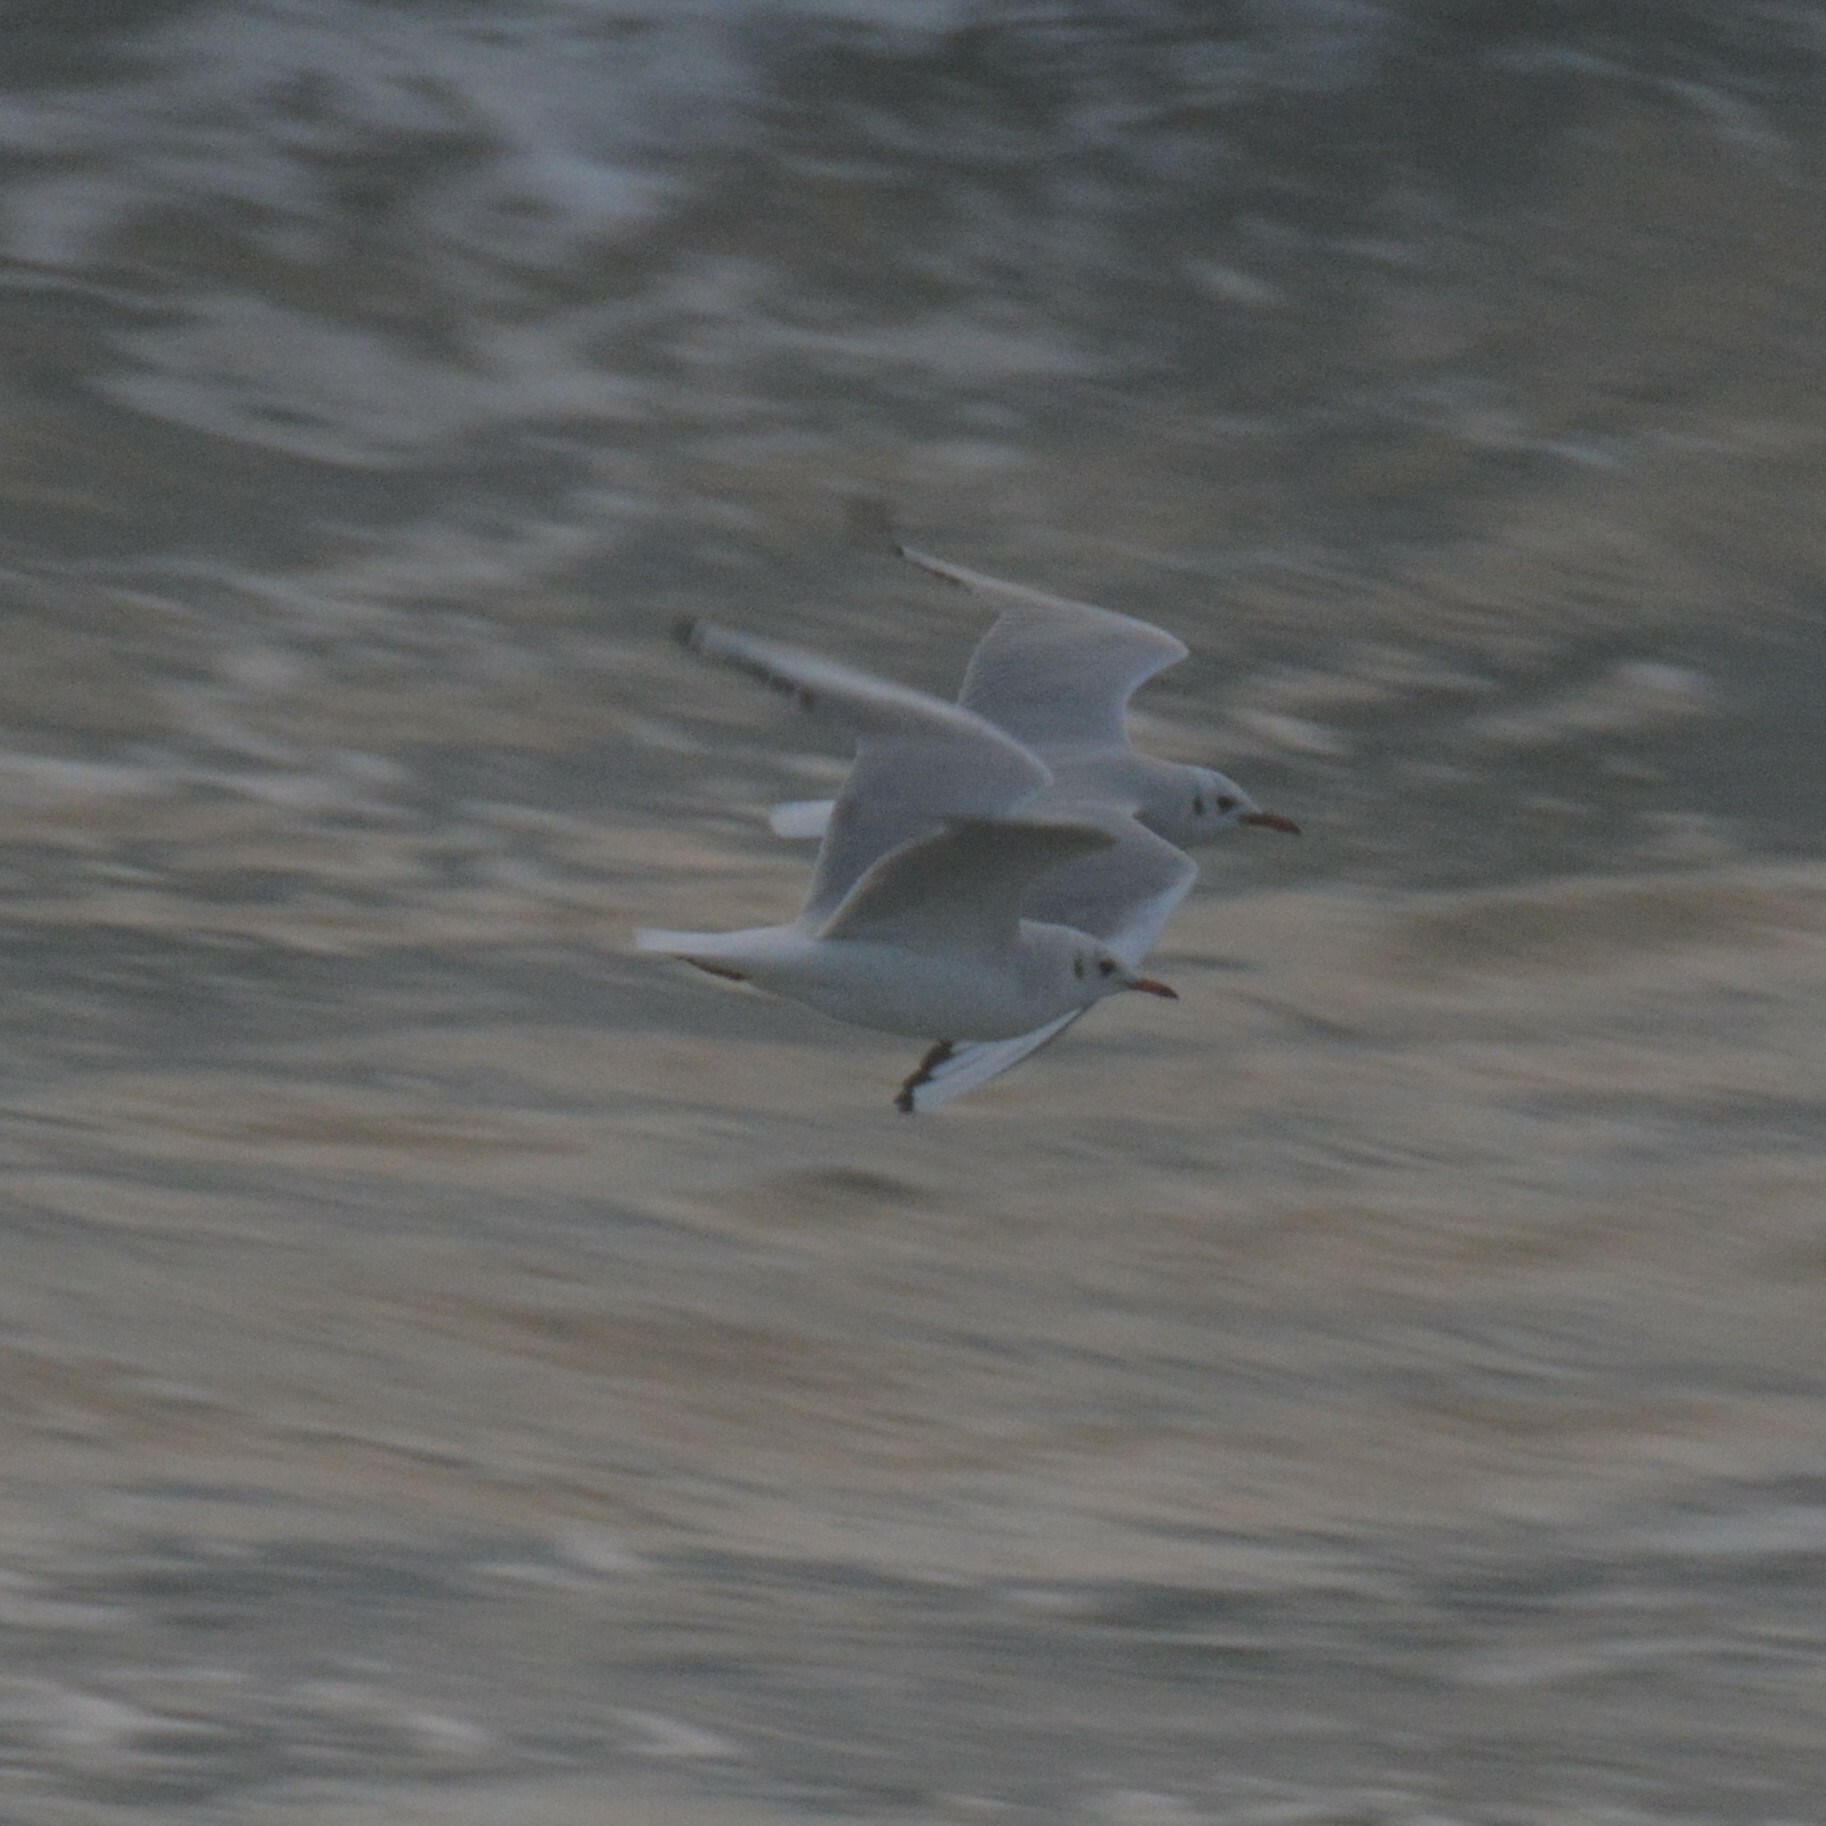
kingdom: Animalia
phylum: Chordata
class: Aves
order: Charadriiformes
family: Laridae
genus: Chroicocephalus
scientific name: Chroicocephalus ridibundus
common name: Black-headed gull
